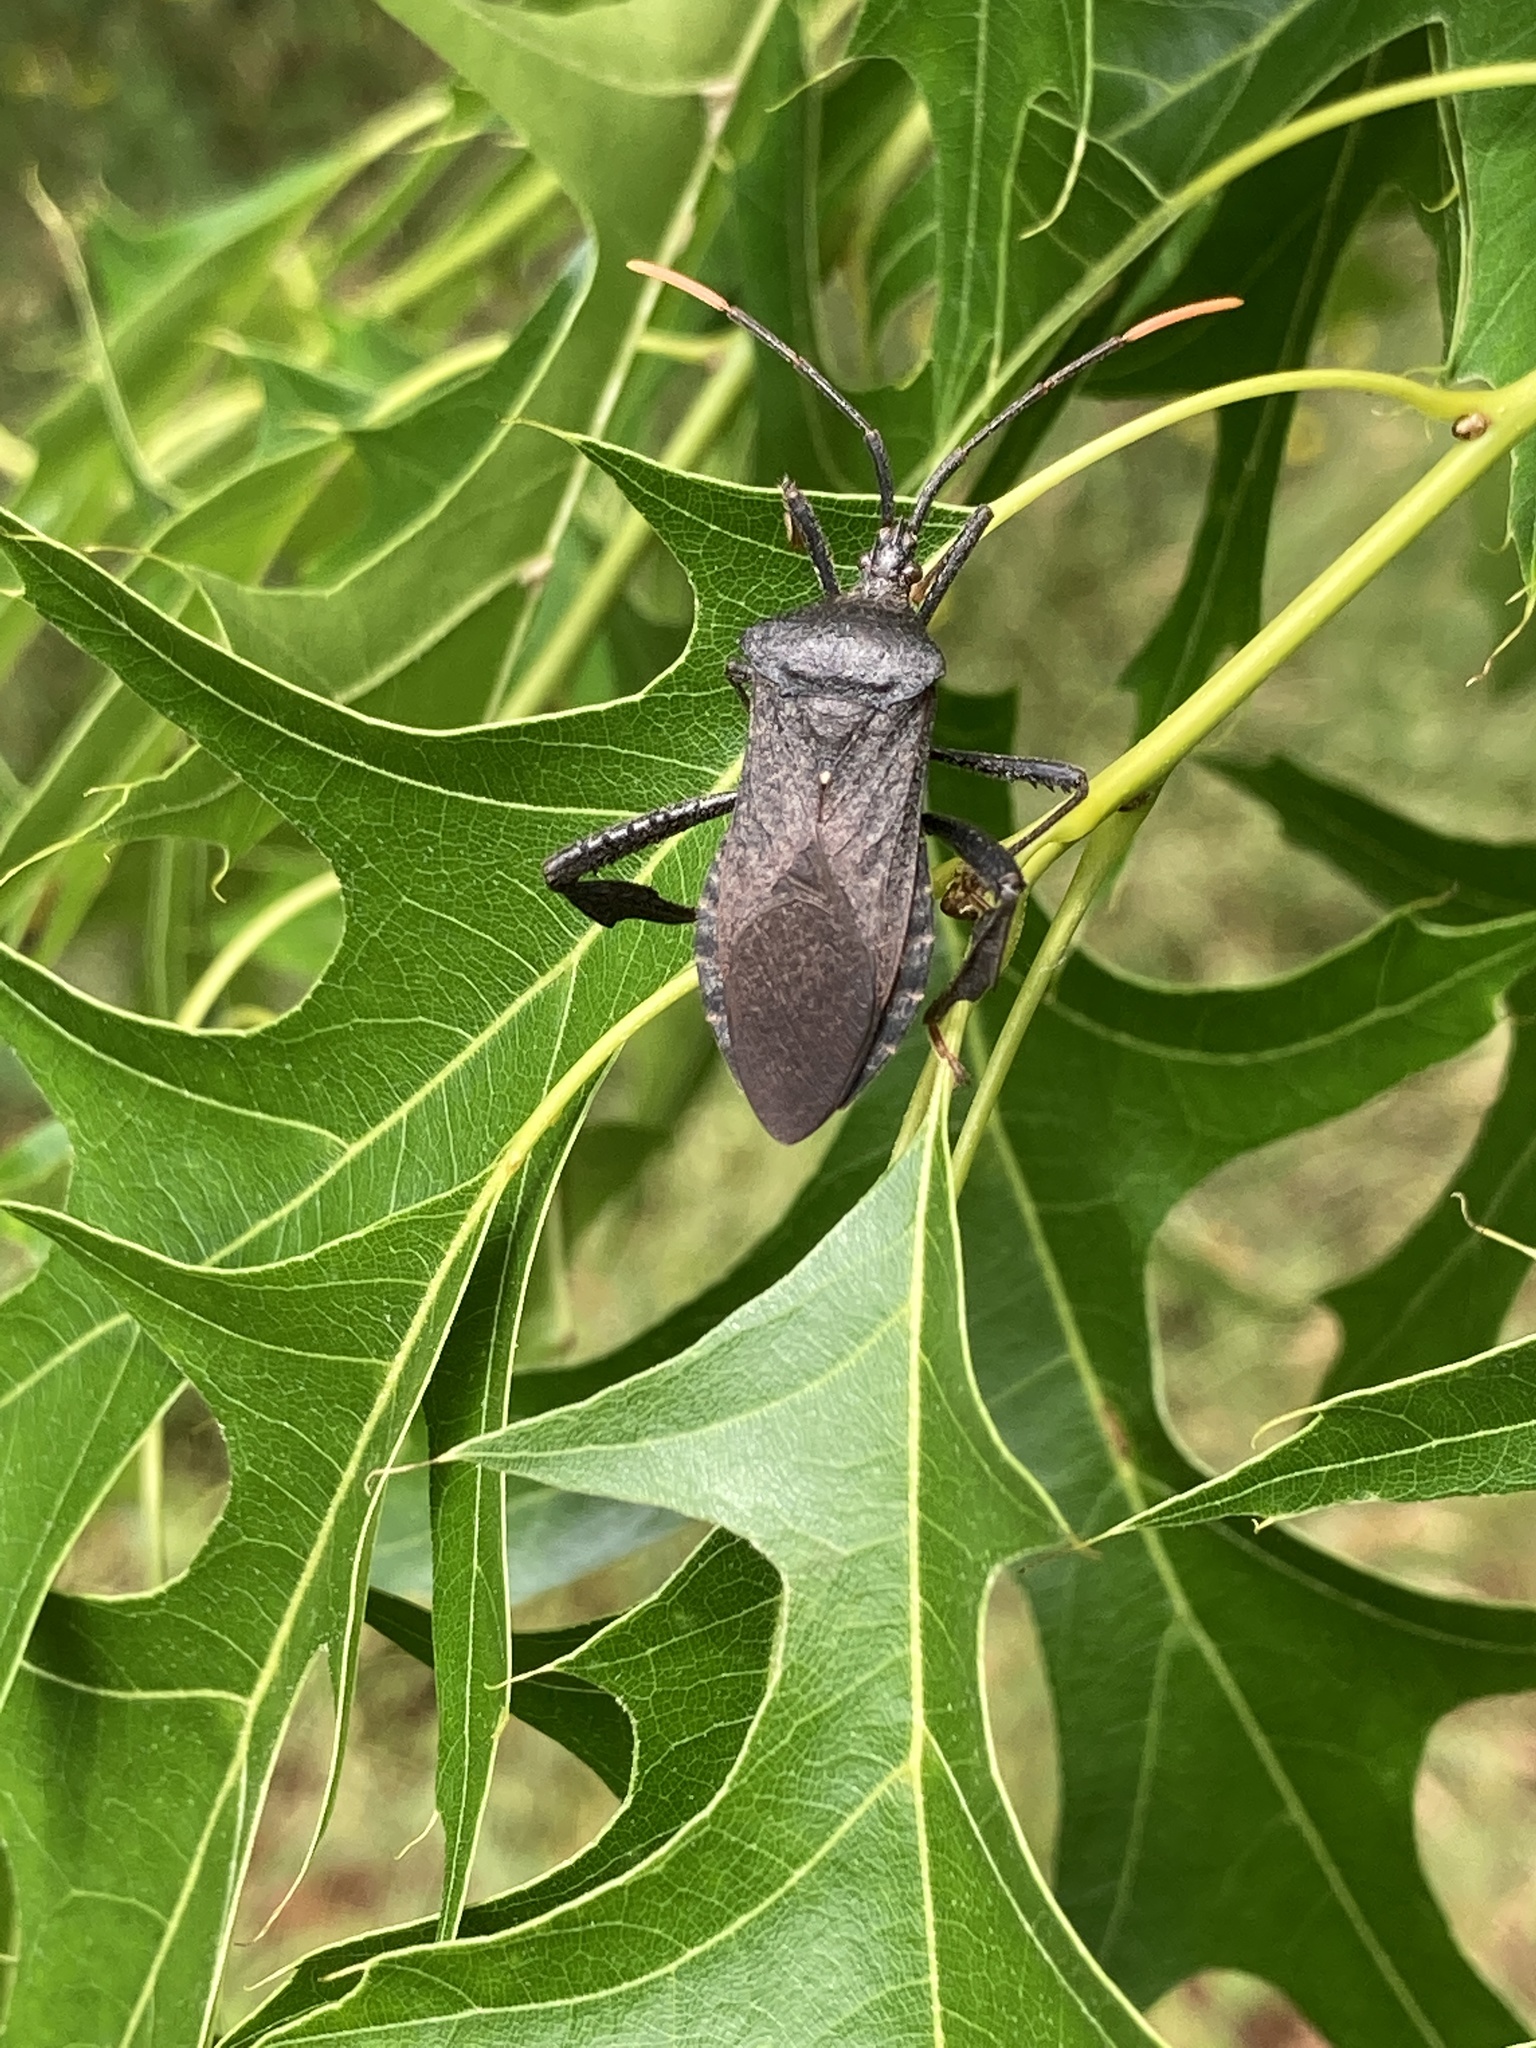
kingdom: Animalia
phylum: Arthropoda
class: Insecta
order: Hemiptera
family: Coreidae
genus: Acanthocephala
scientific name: Acanthocephala terminalis
